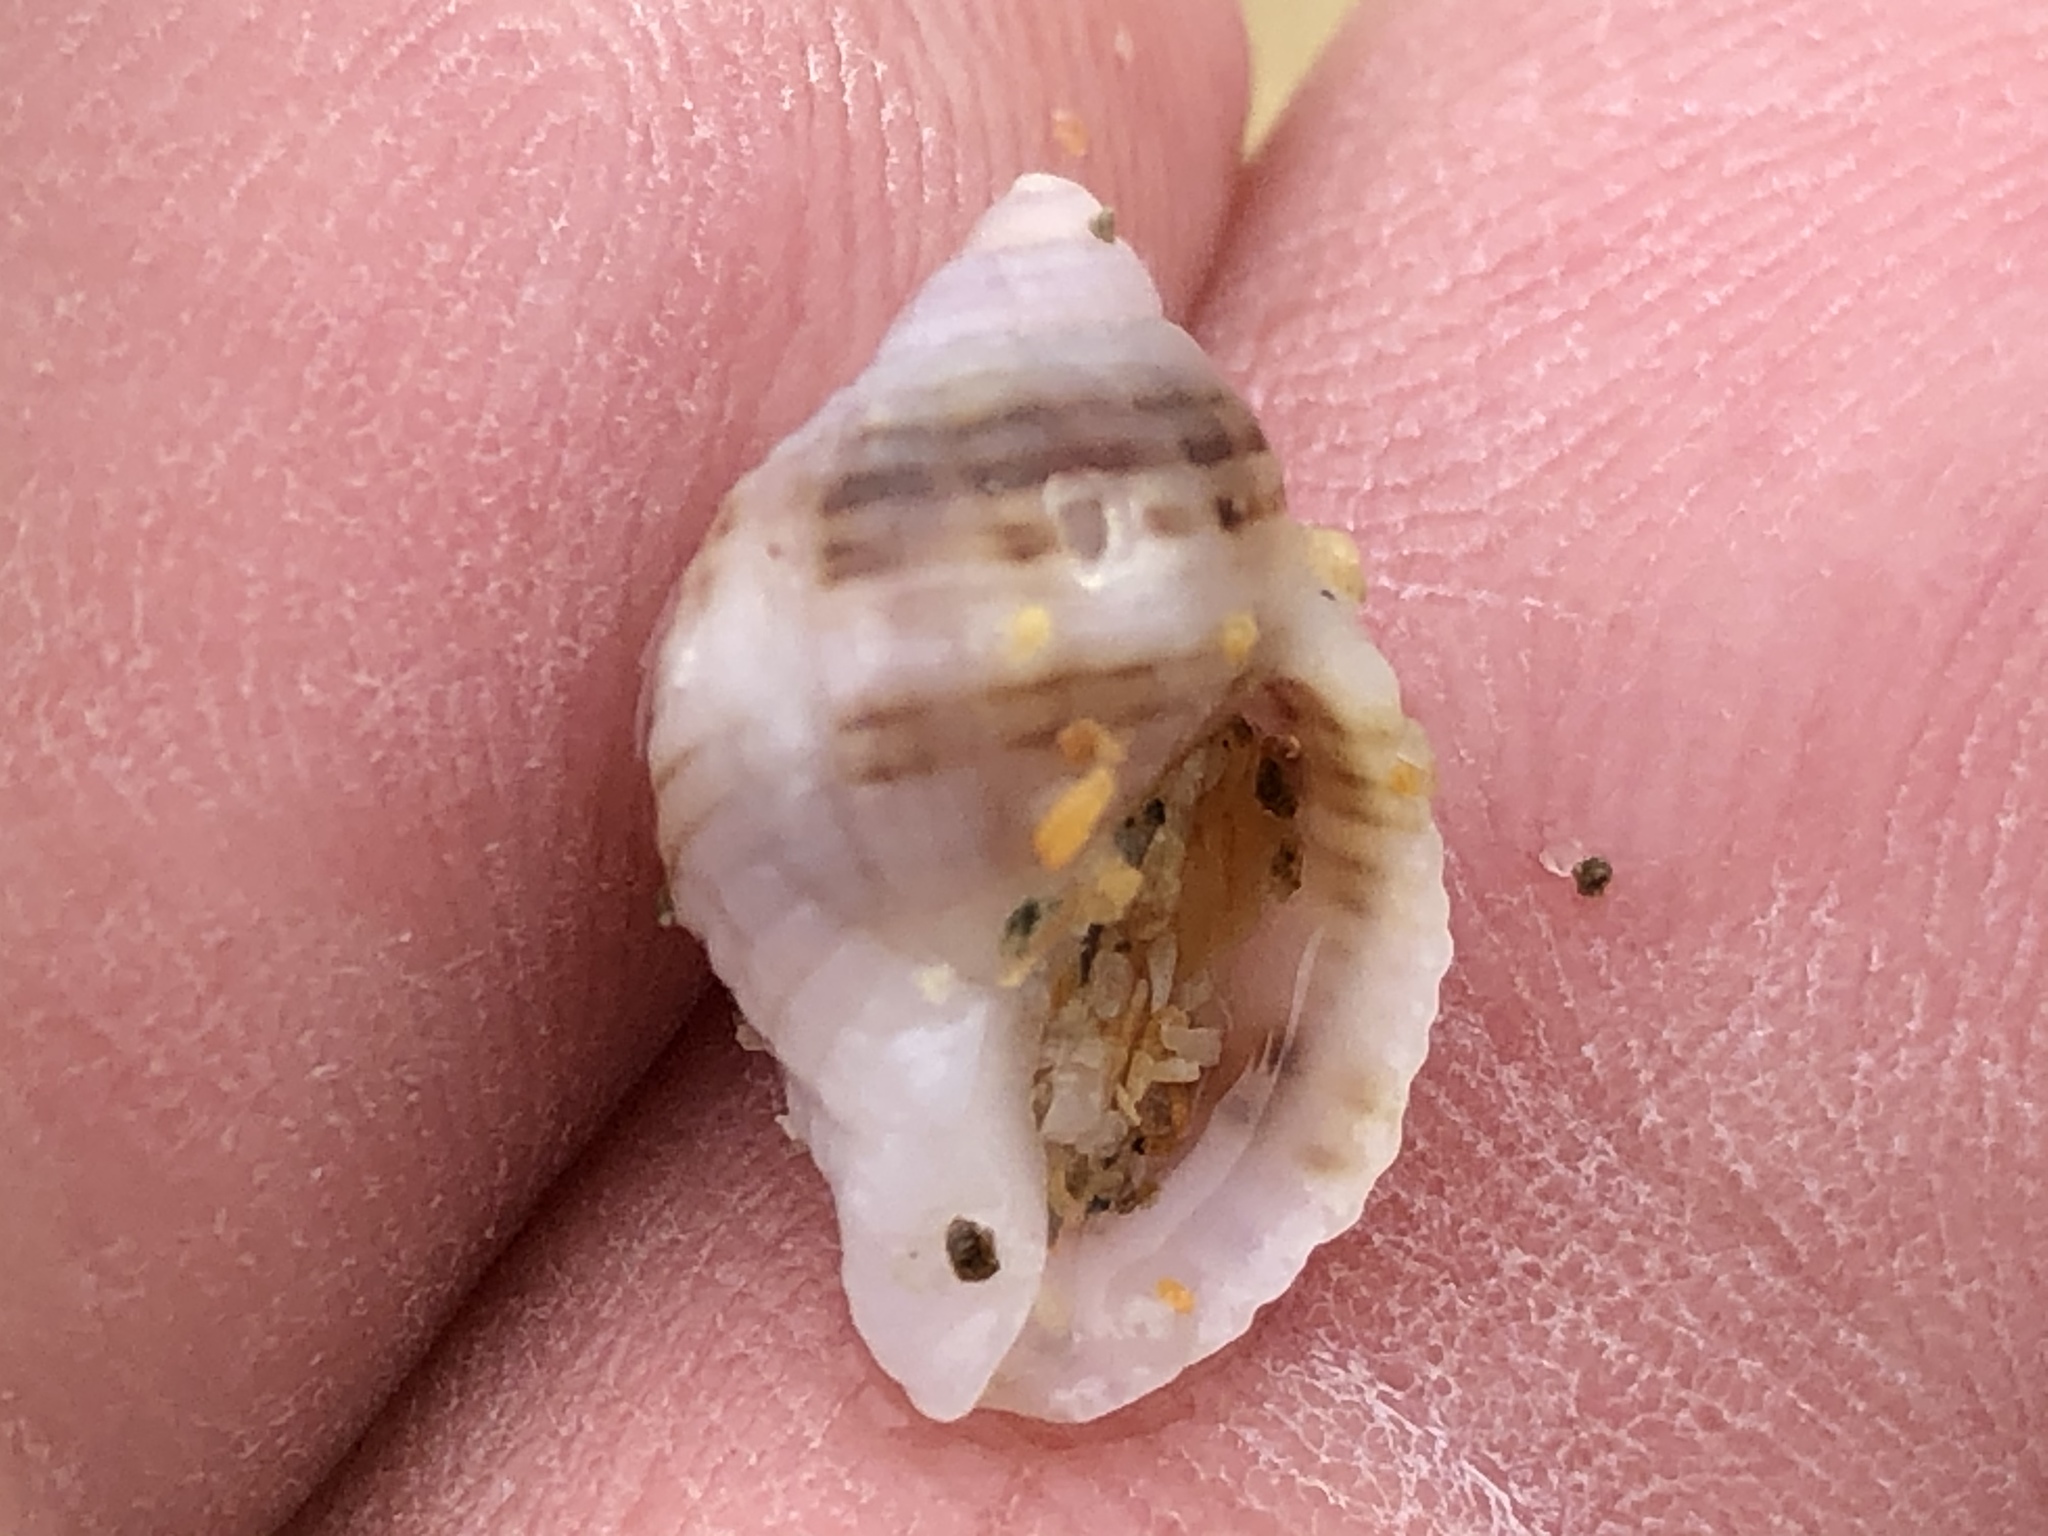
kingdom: Animalia
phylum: Mollusca
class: Gastropoda
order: Neogastropoda
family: Muricidae
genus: Nucella
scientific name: Nucella analoga
